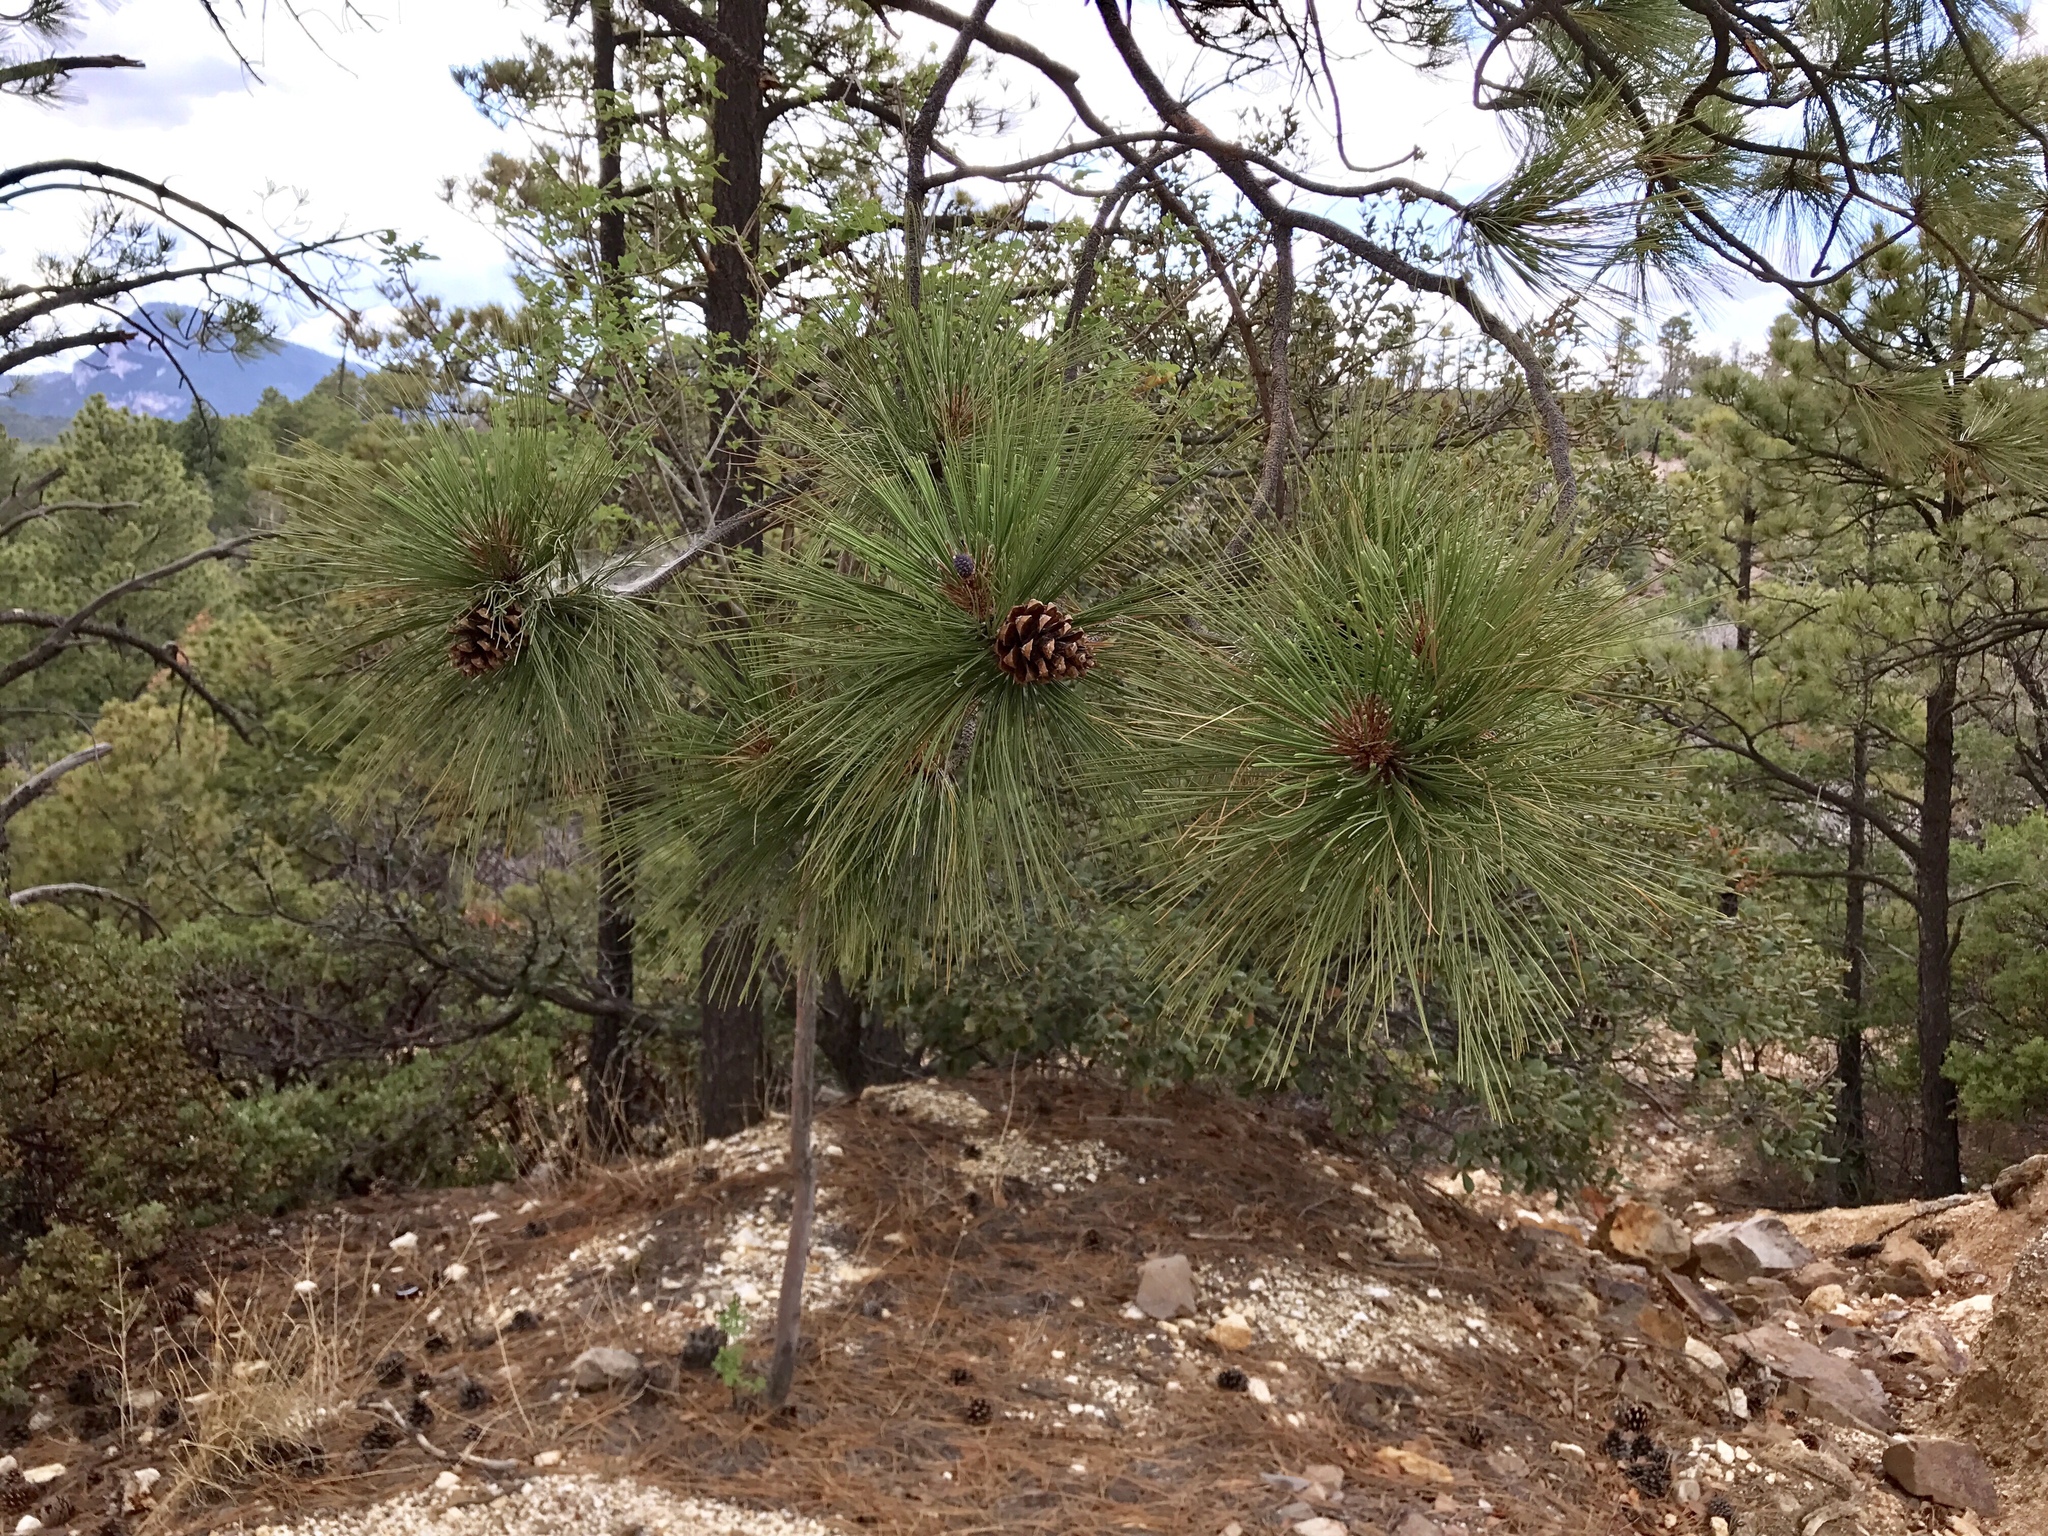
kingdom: Plantae
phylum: Tracheophyta
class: Pinopsida
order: Pinales
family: Pinaceae
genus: Pinus
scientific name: Pinus arizonica
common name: Arizona pine
